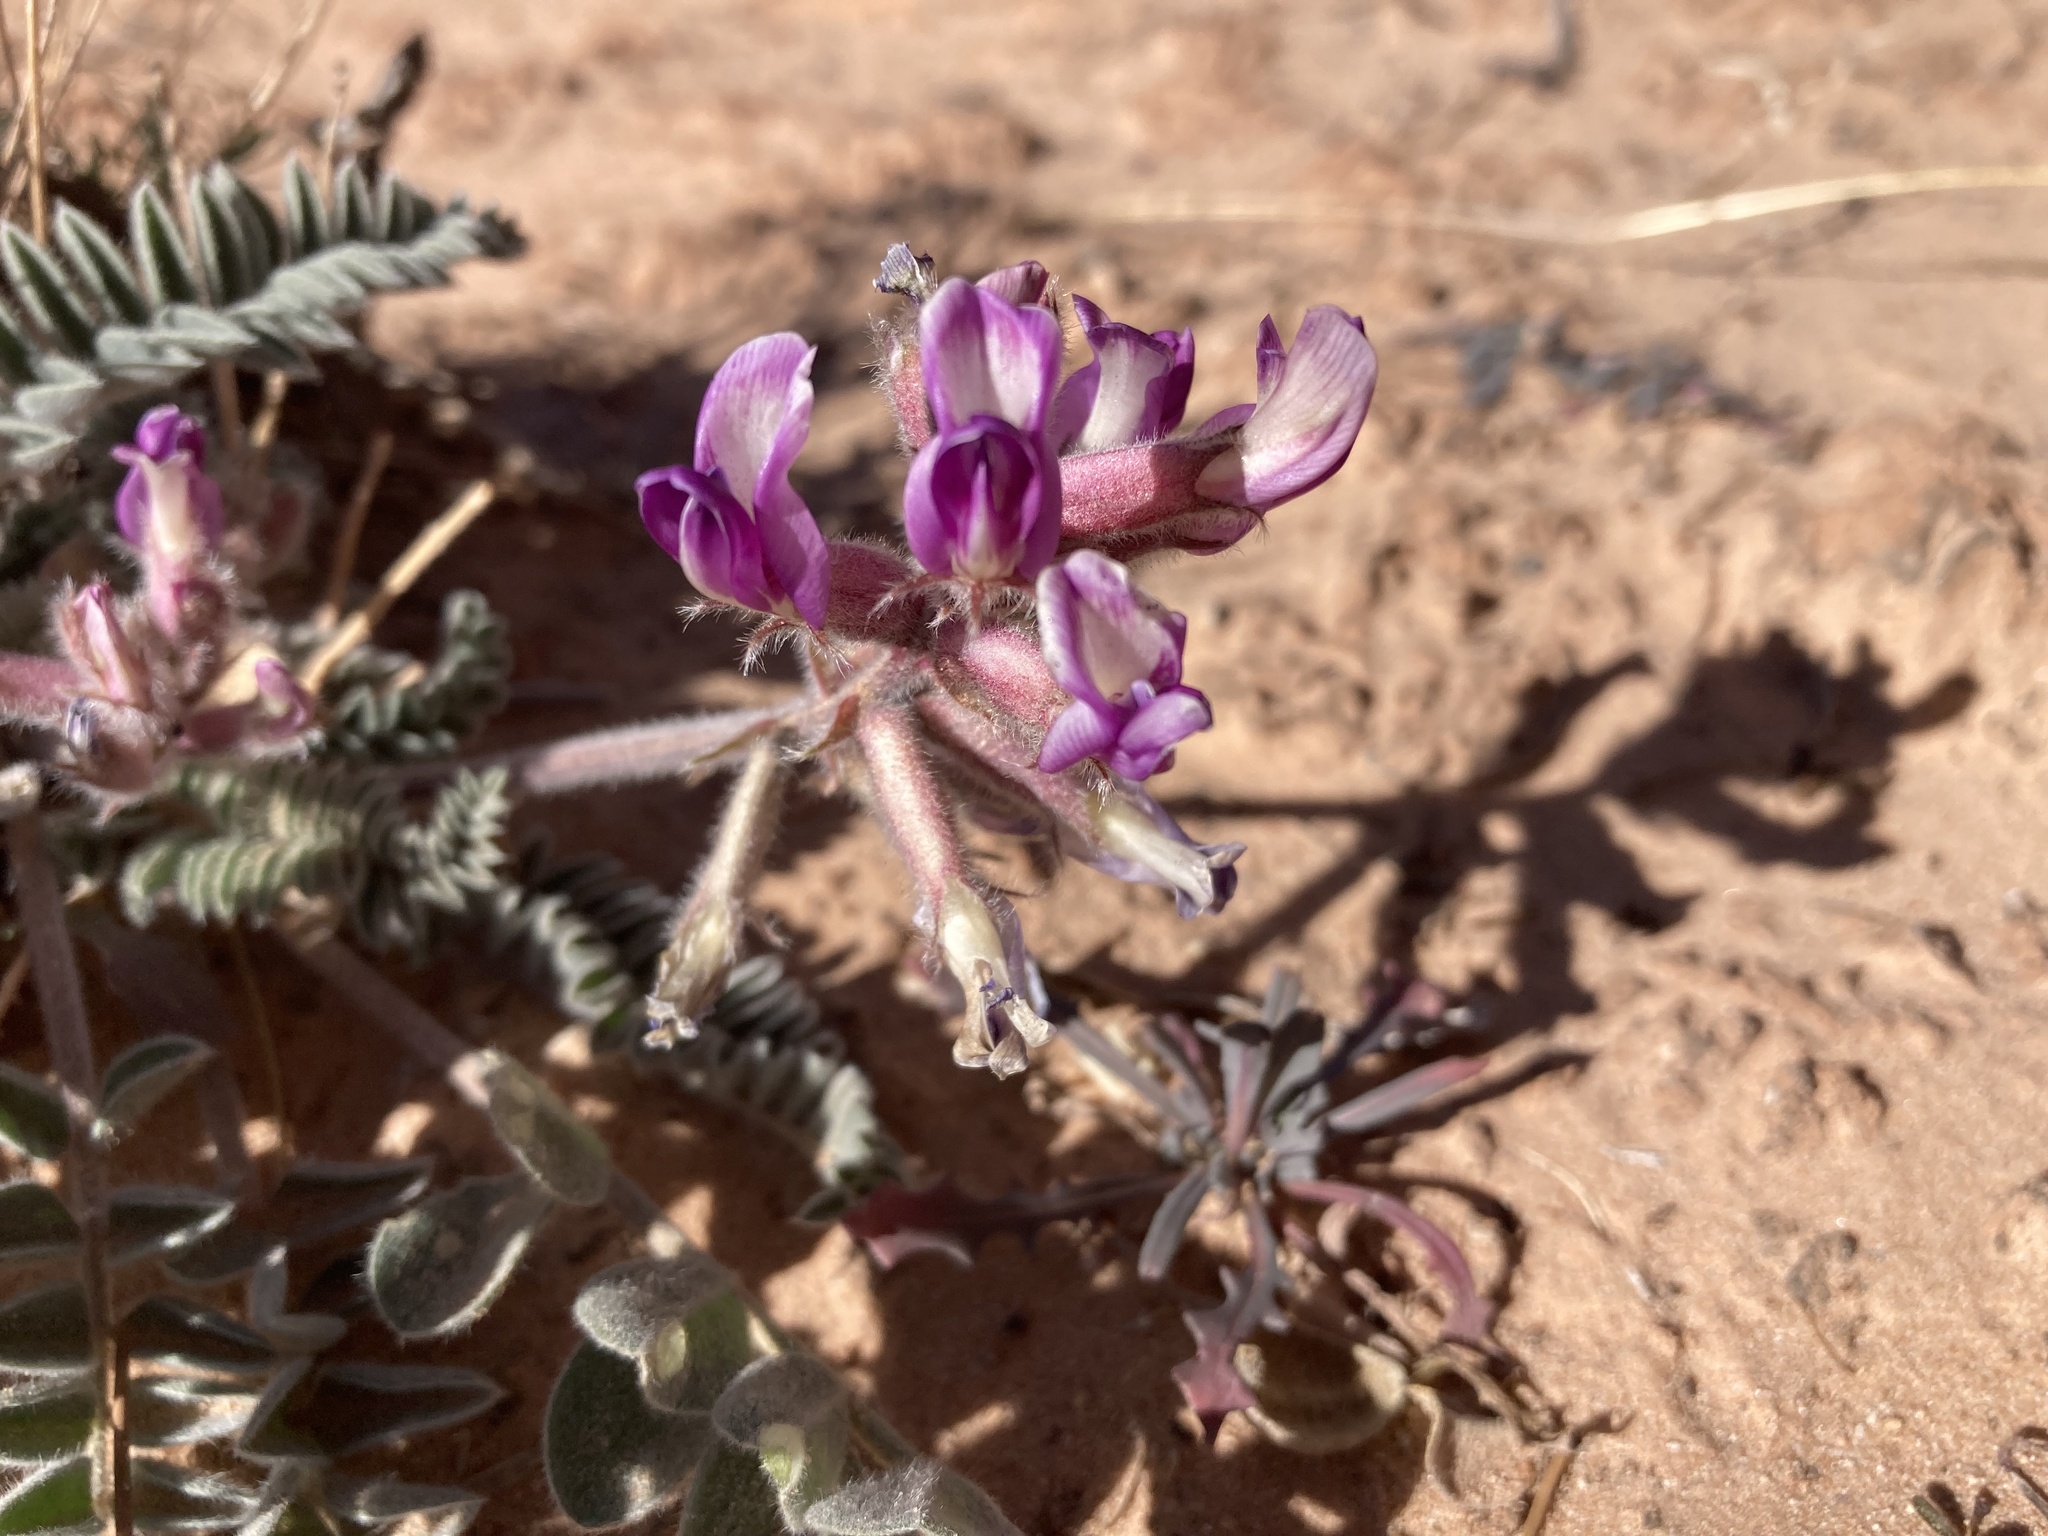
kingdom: Plantae
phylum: Tracheophyta
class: Magnoliopsida
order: Fabales
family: Fabaceae
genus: Astragalus
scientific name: Astragalus mollissimus
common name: Woolly locoweed
